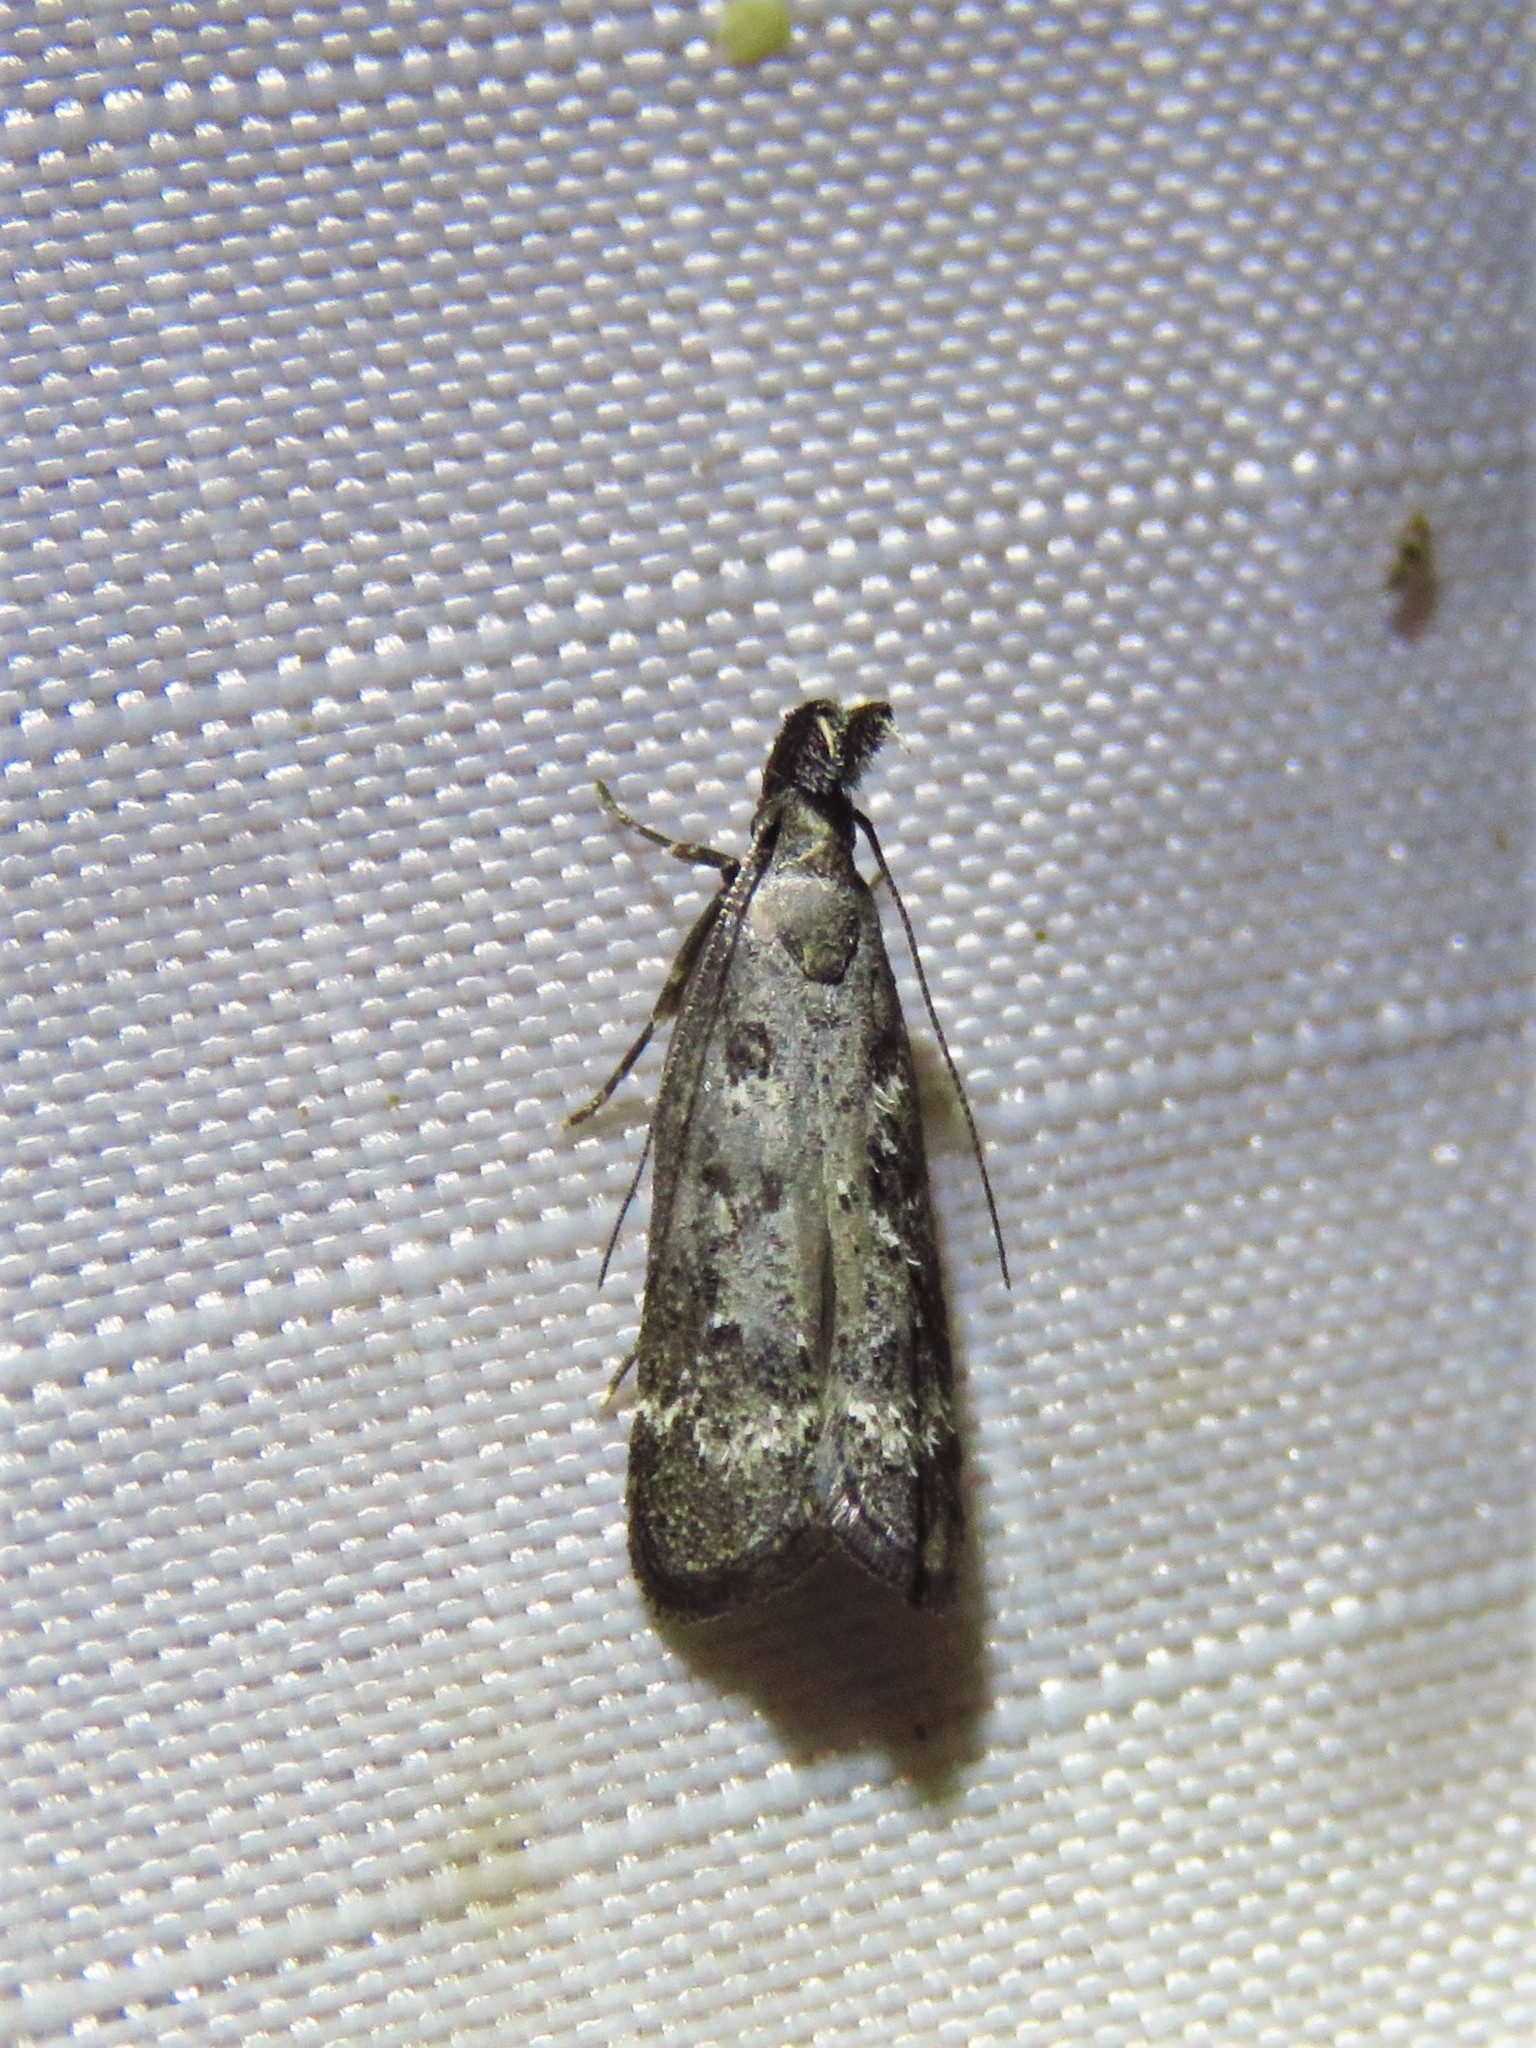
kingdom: Animalia
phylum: Arthropoda
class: Insecta
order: Lepidoptera
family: Gelechiidae
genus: Dichomeris
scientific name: Dichomeris inversella
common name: Inverse dichomeris moth
